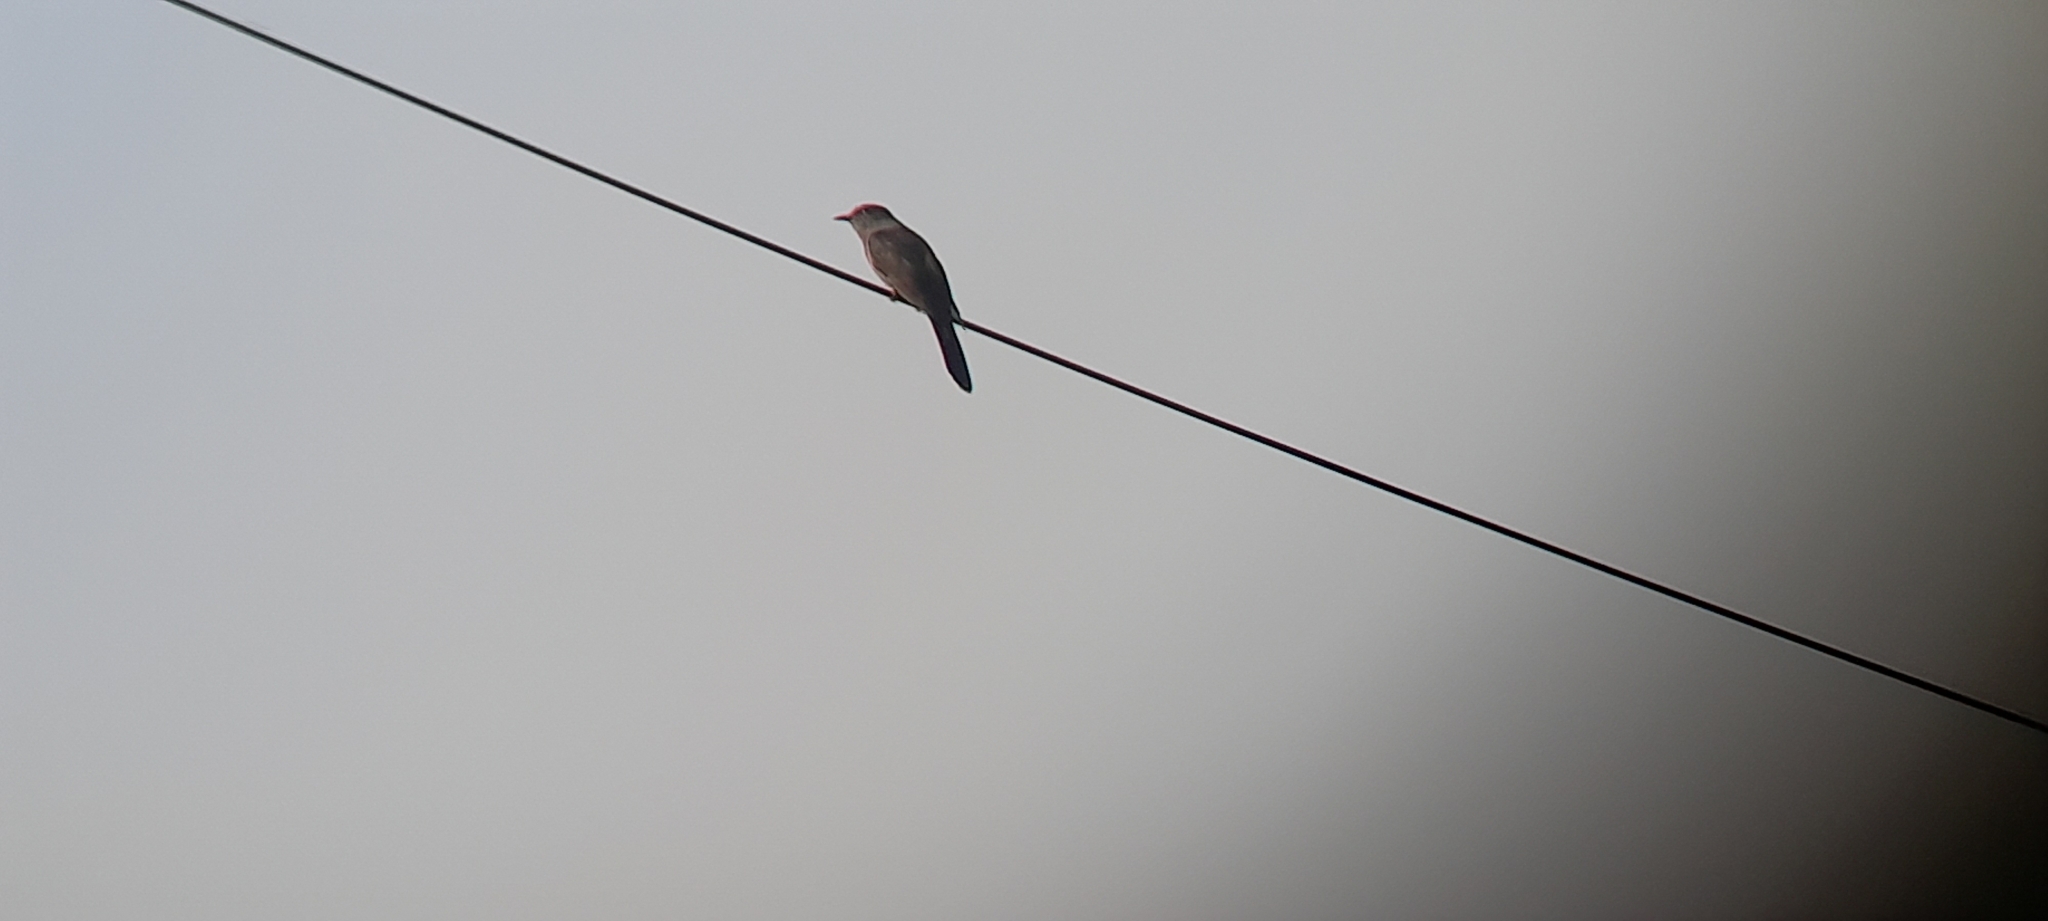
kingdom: Animalia
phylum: Chordata
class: Aves
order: Cuculiformes
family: Cuculidae
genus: Cacomantis
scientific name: Cacomantis passerinus
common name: Grey-bellied cuckoo
